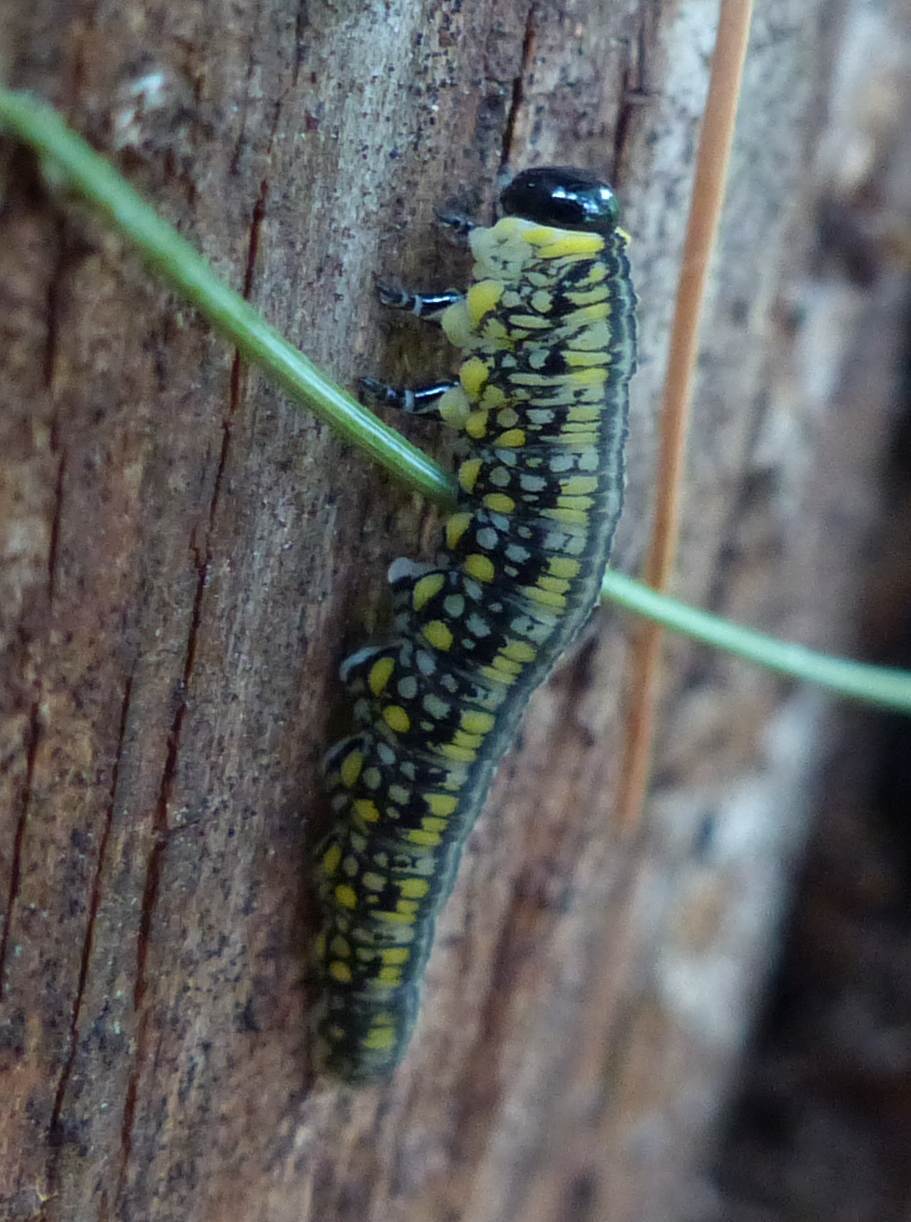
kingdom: Animalia
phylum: Arthropoda
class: Insecta
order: Hymenoptera
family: Diprionidae
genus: Diprion
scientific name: Diprion similis
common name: Pine sawfly
